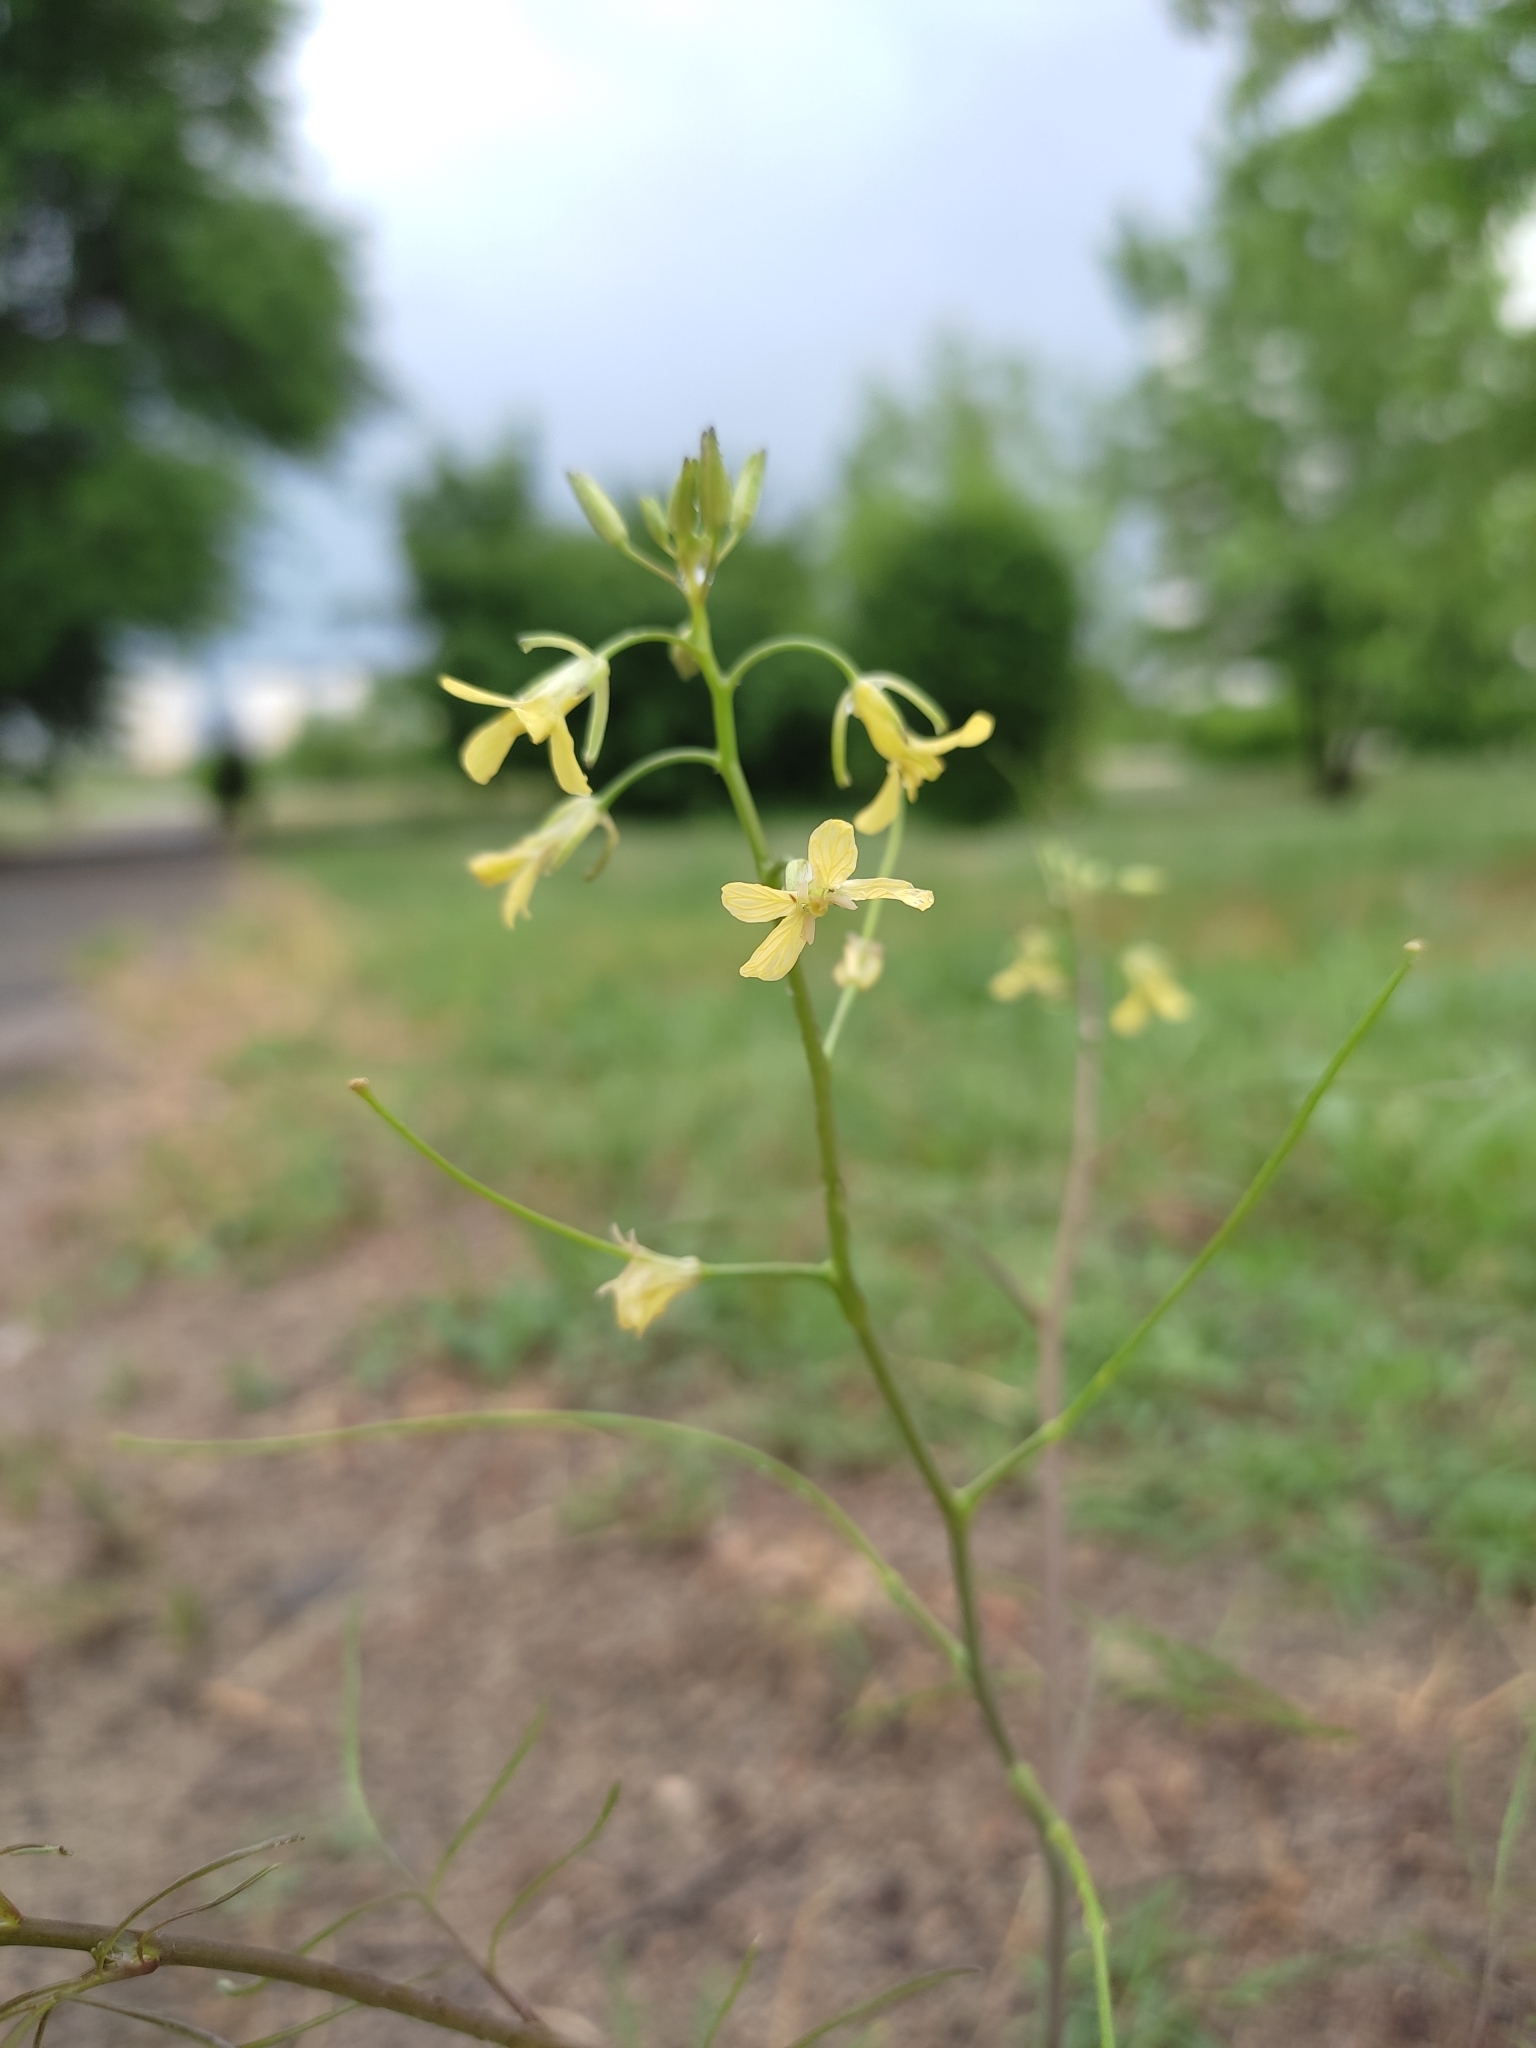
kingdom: Plantae
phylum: Tracheophyta
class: Magnoliopsida
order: Brassicales
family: Brassicaceae
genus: Sisymbrium
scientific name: Sisymbrium altissimum
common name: Tall rocket
